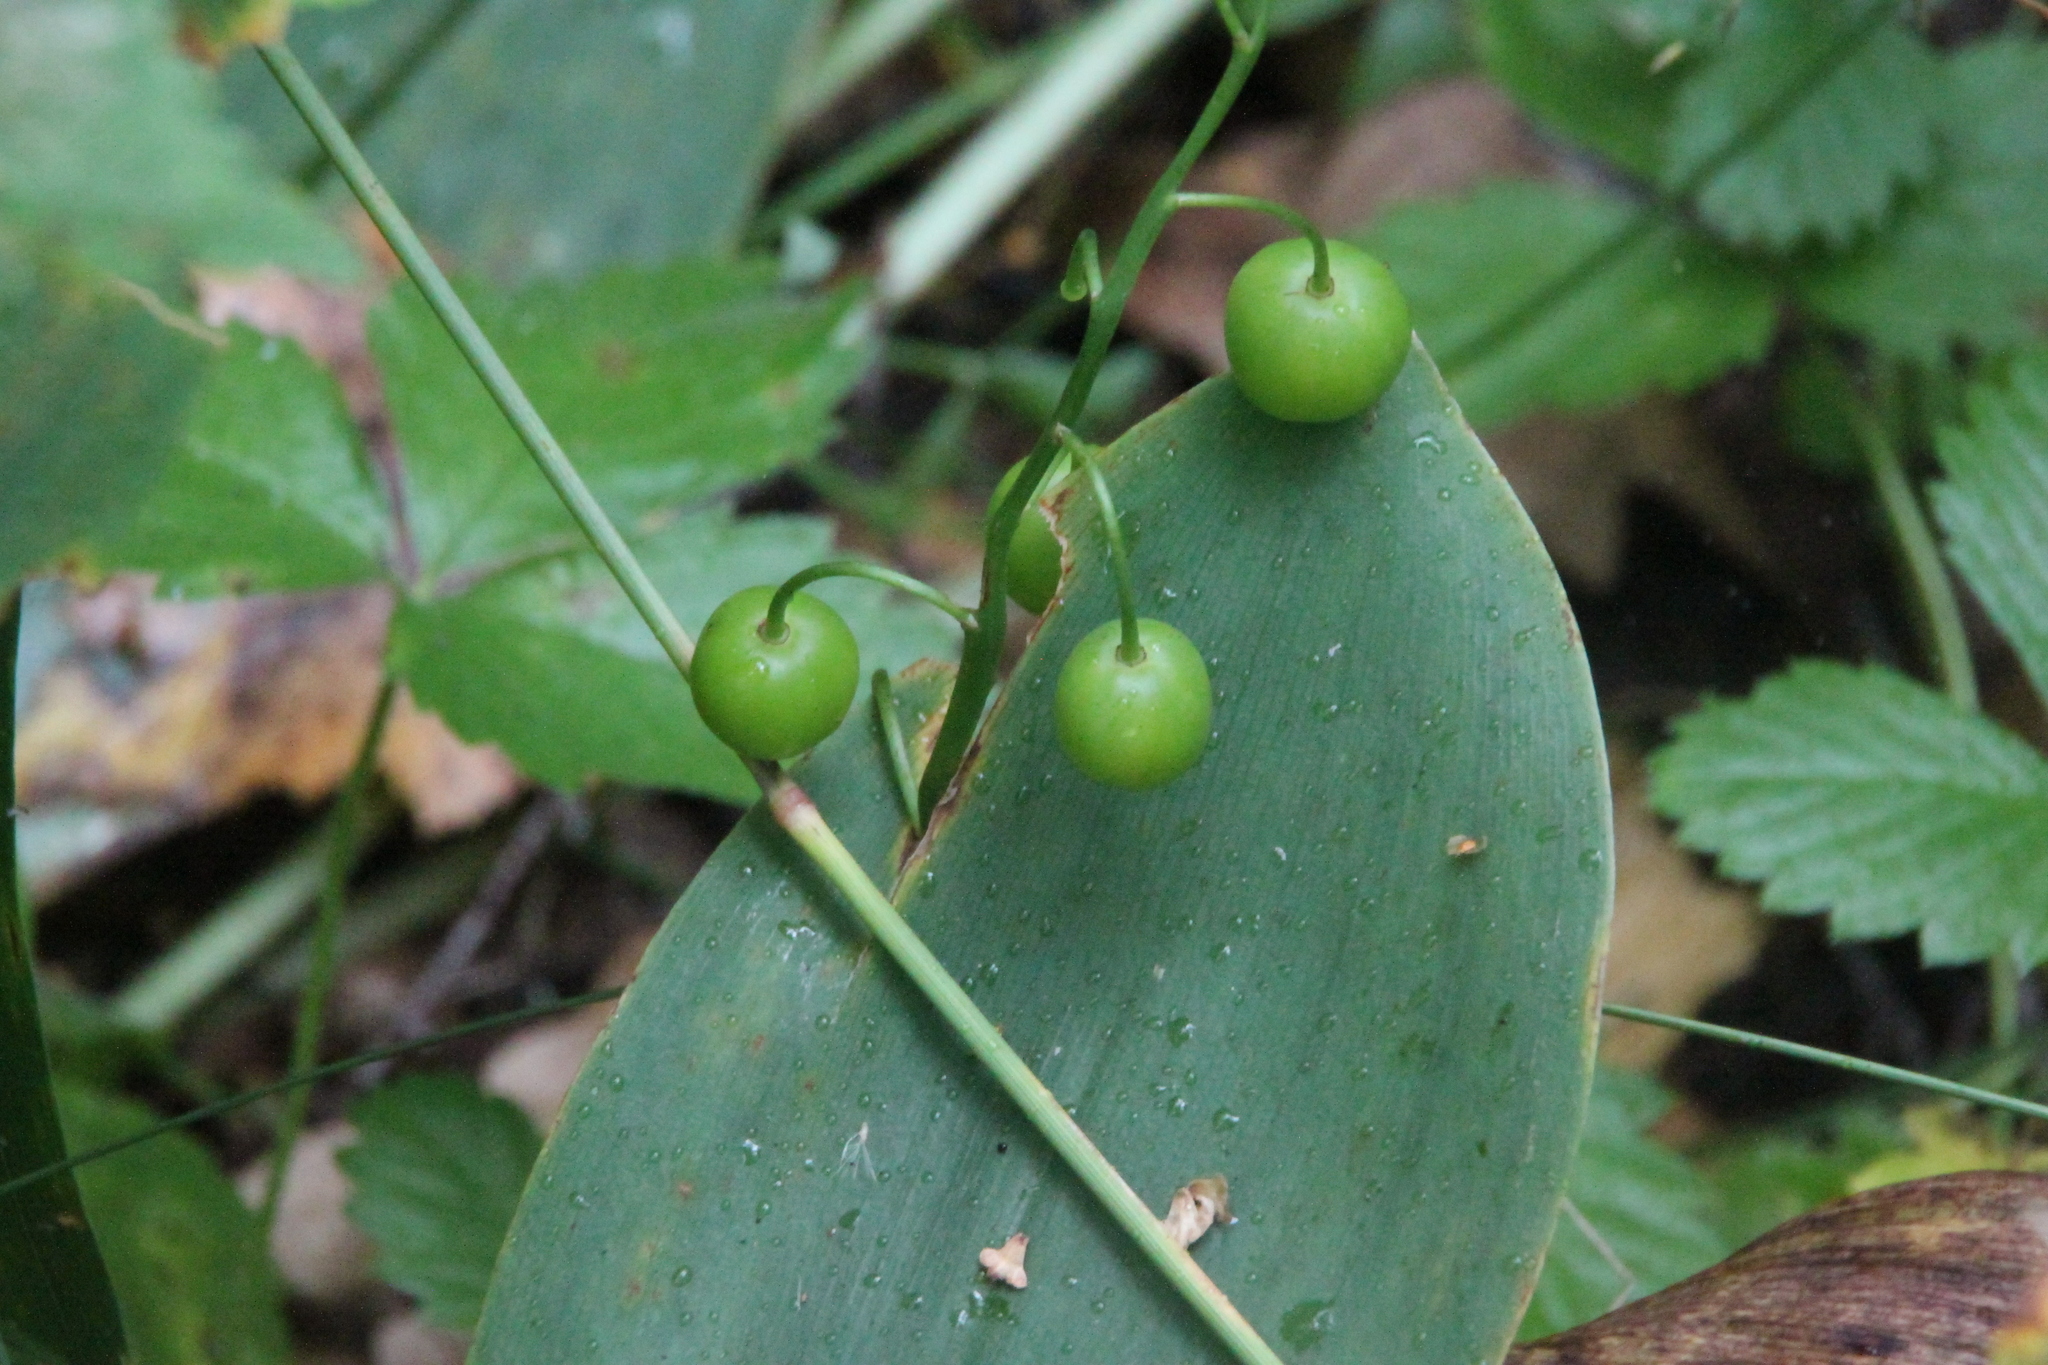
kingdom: Plantae
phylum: Tracheophyta
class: Liliopsida
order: Asparagales
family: Asparagaceae
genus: Convallaria
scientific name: Convallaria majalis
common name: Lily-of-the-valley
